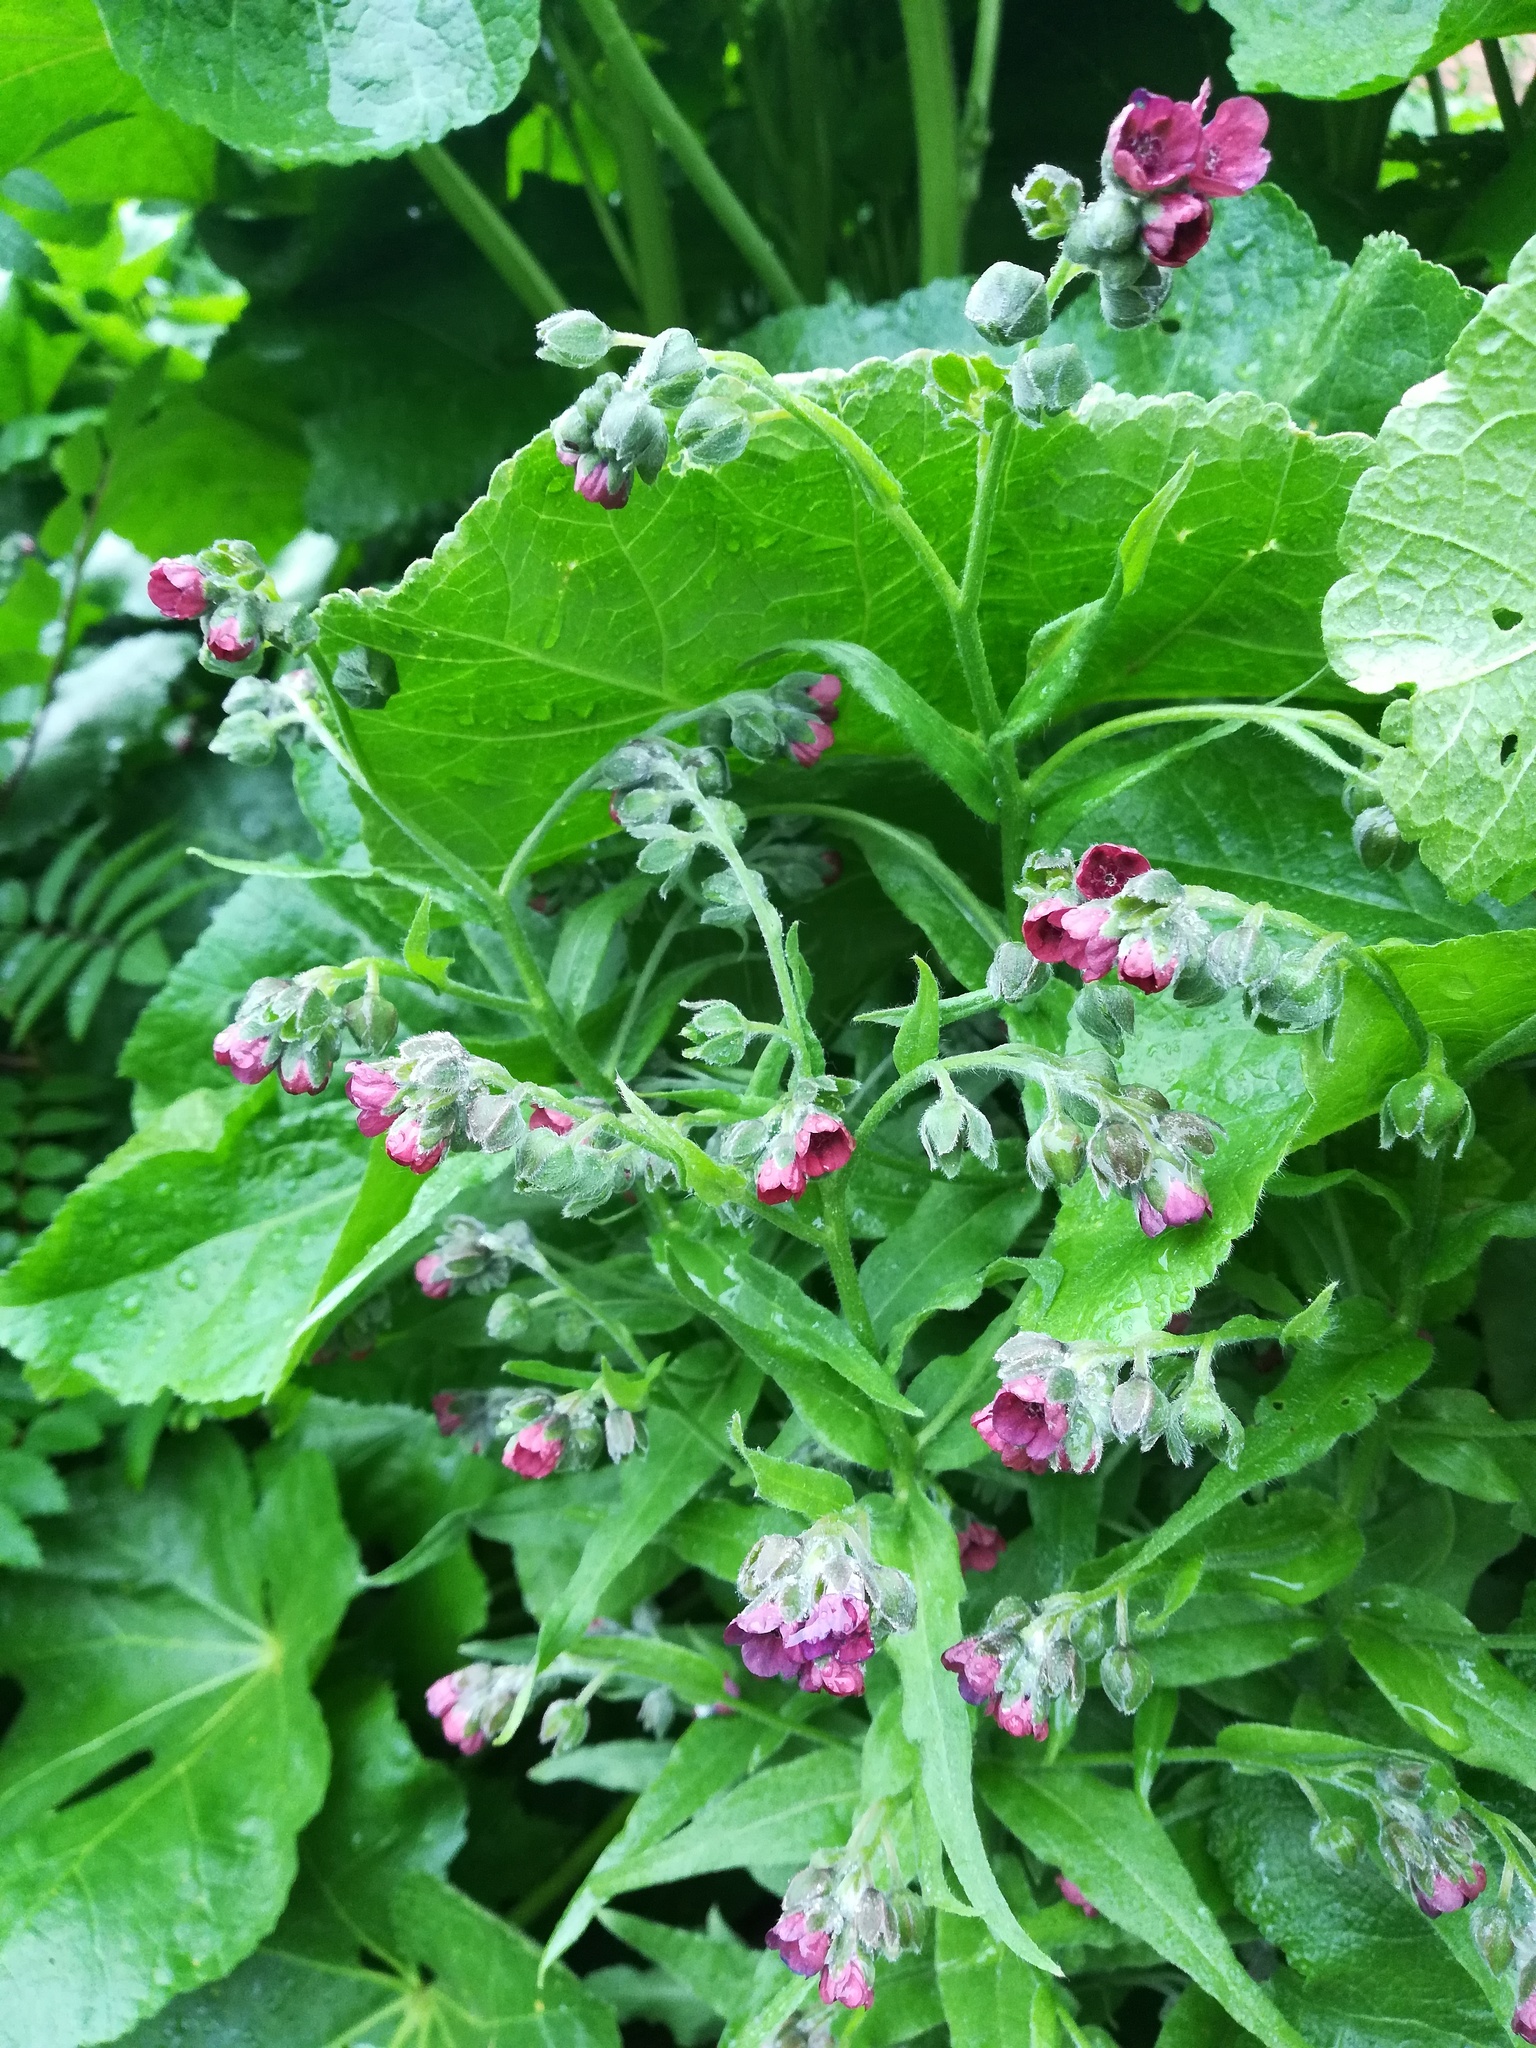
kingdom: Plantae
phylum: Tracheophyta
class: Magnoliopsida
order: Boraginales
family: Boraginaceae
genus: Cynoglossum
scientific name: Cynoglossum officinale
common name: Hound's-tongue
